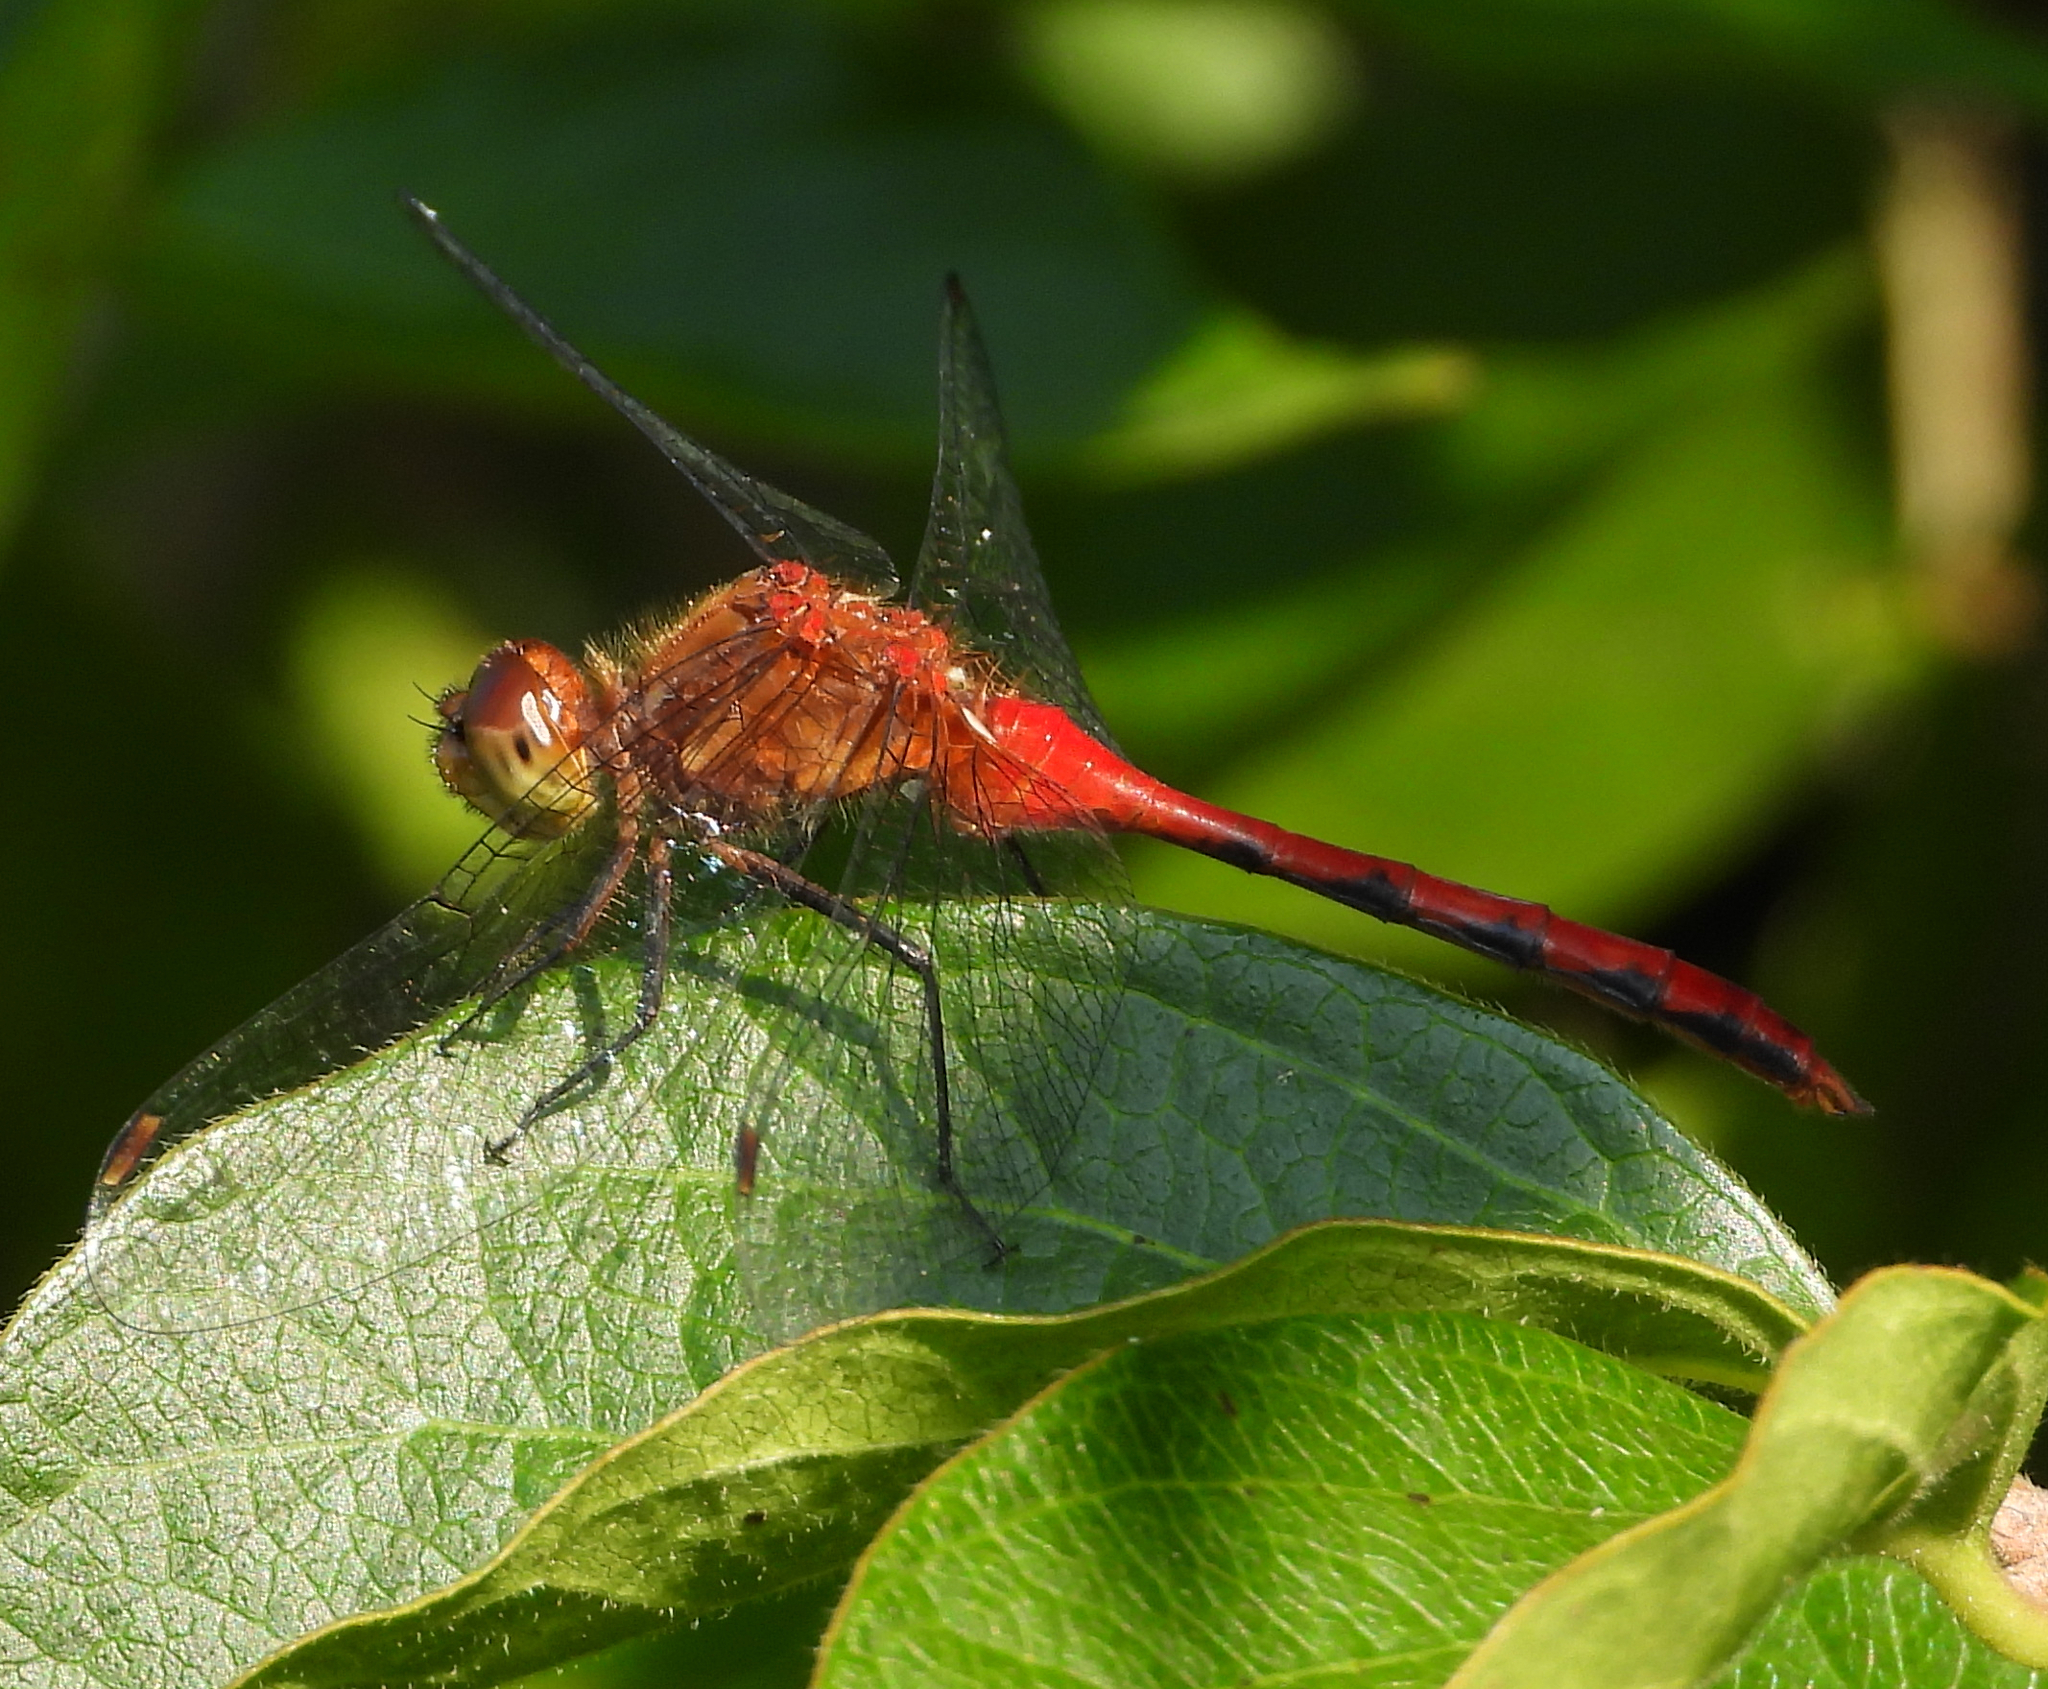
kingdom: Animalia
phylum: Arthropoda
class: Insecta
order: Odonata
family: Libellulidae
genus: Sympetrum
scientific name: Sympetrum
